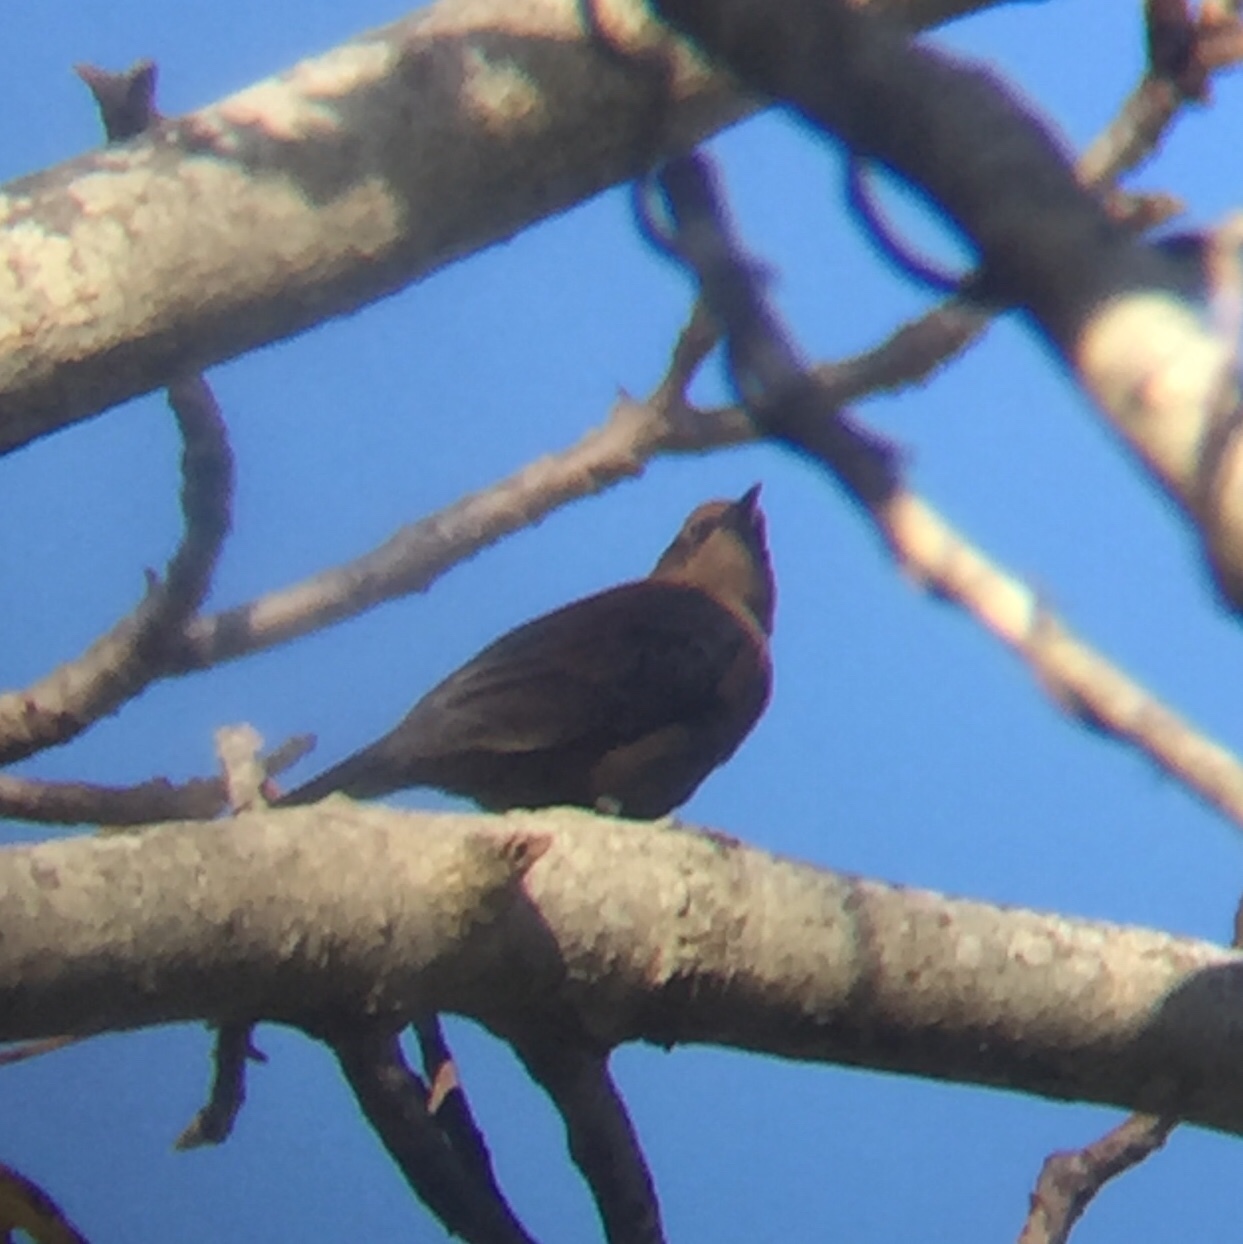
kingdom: Animalia
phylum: Chordata
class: Aves
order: Passeriformes
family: Icteridae
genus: Euphagus
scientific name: Euphagus carolinus
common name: Rusty blackbird
